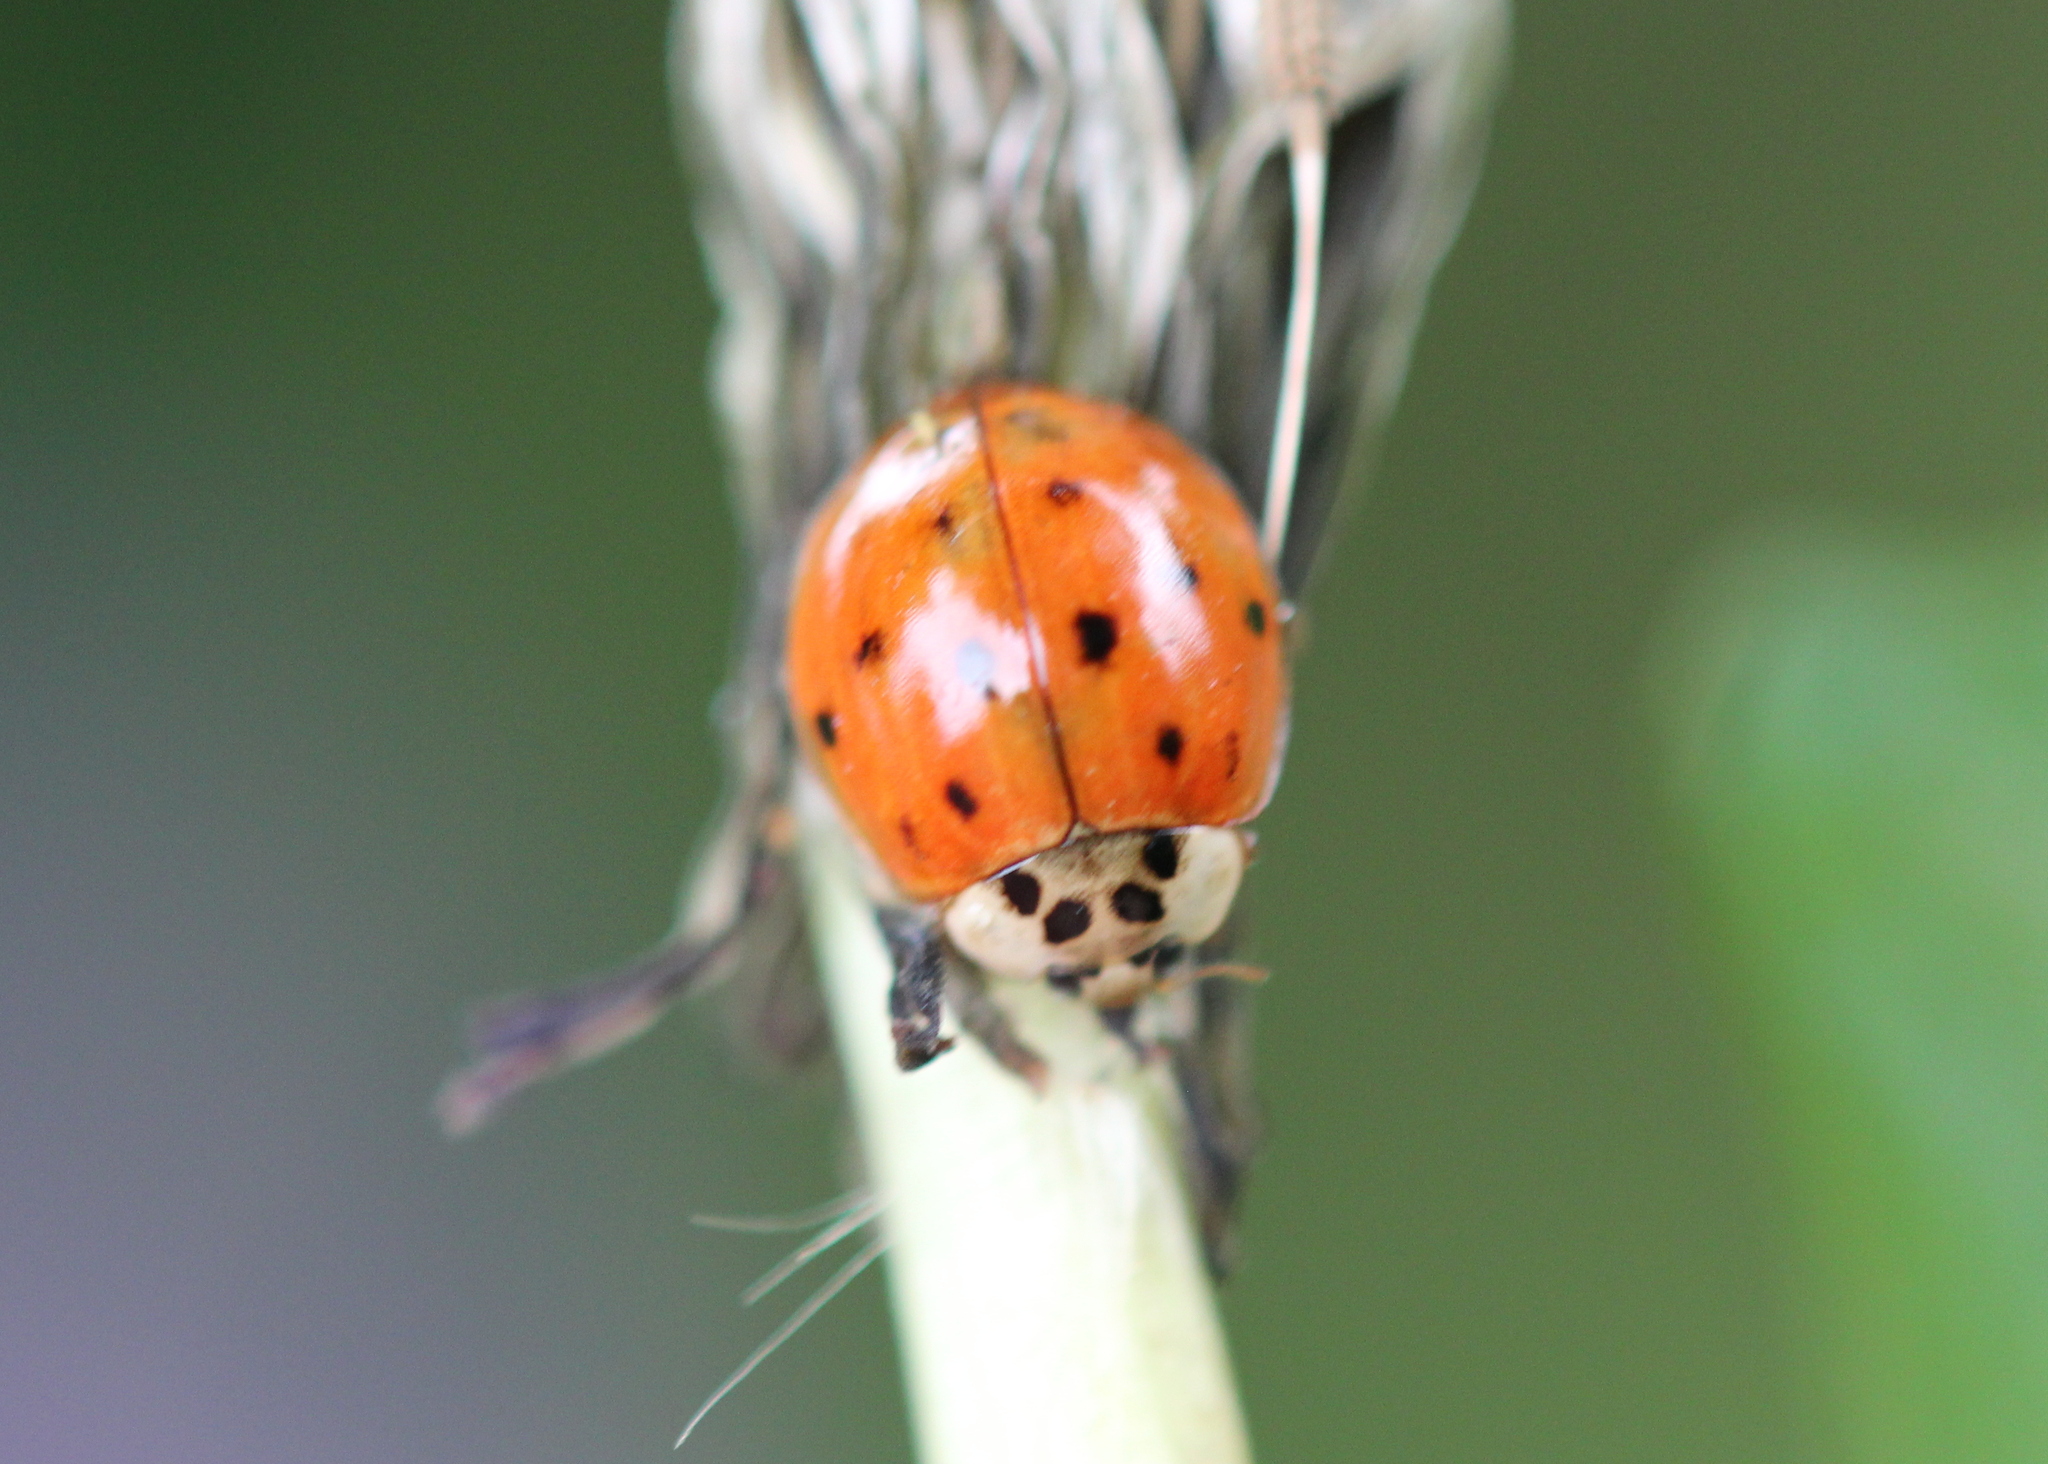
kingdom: Animalia
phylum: Arthropoda
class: Insecta
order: Coleoptera
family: Coccinellidae
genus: Harmonia
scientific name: Harmonia axyridis
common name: Harlequin ladybird
